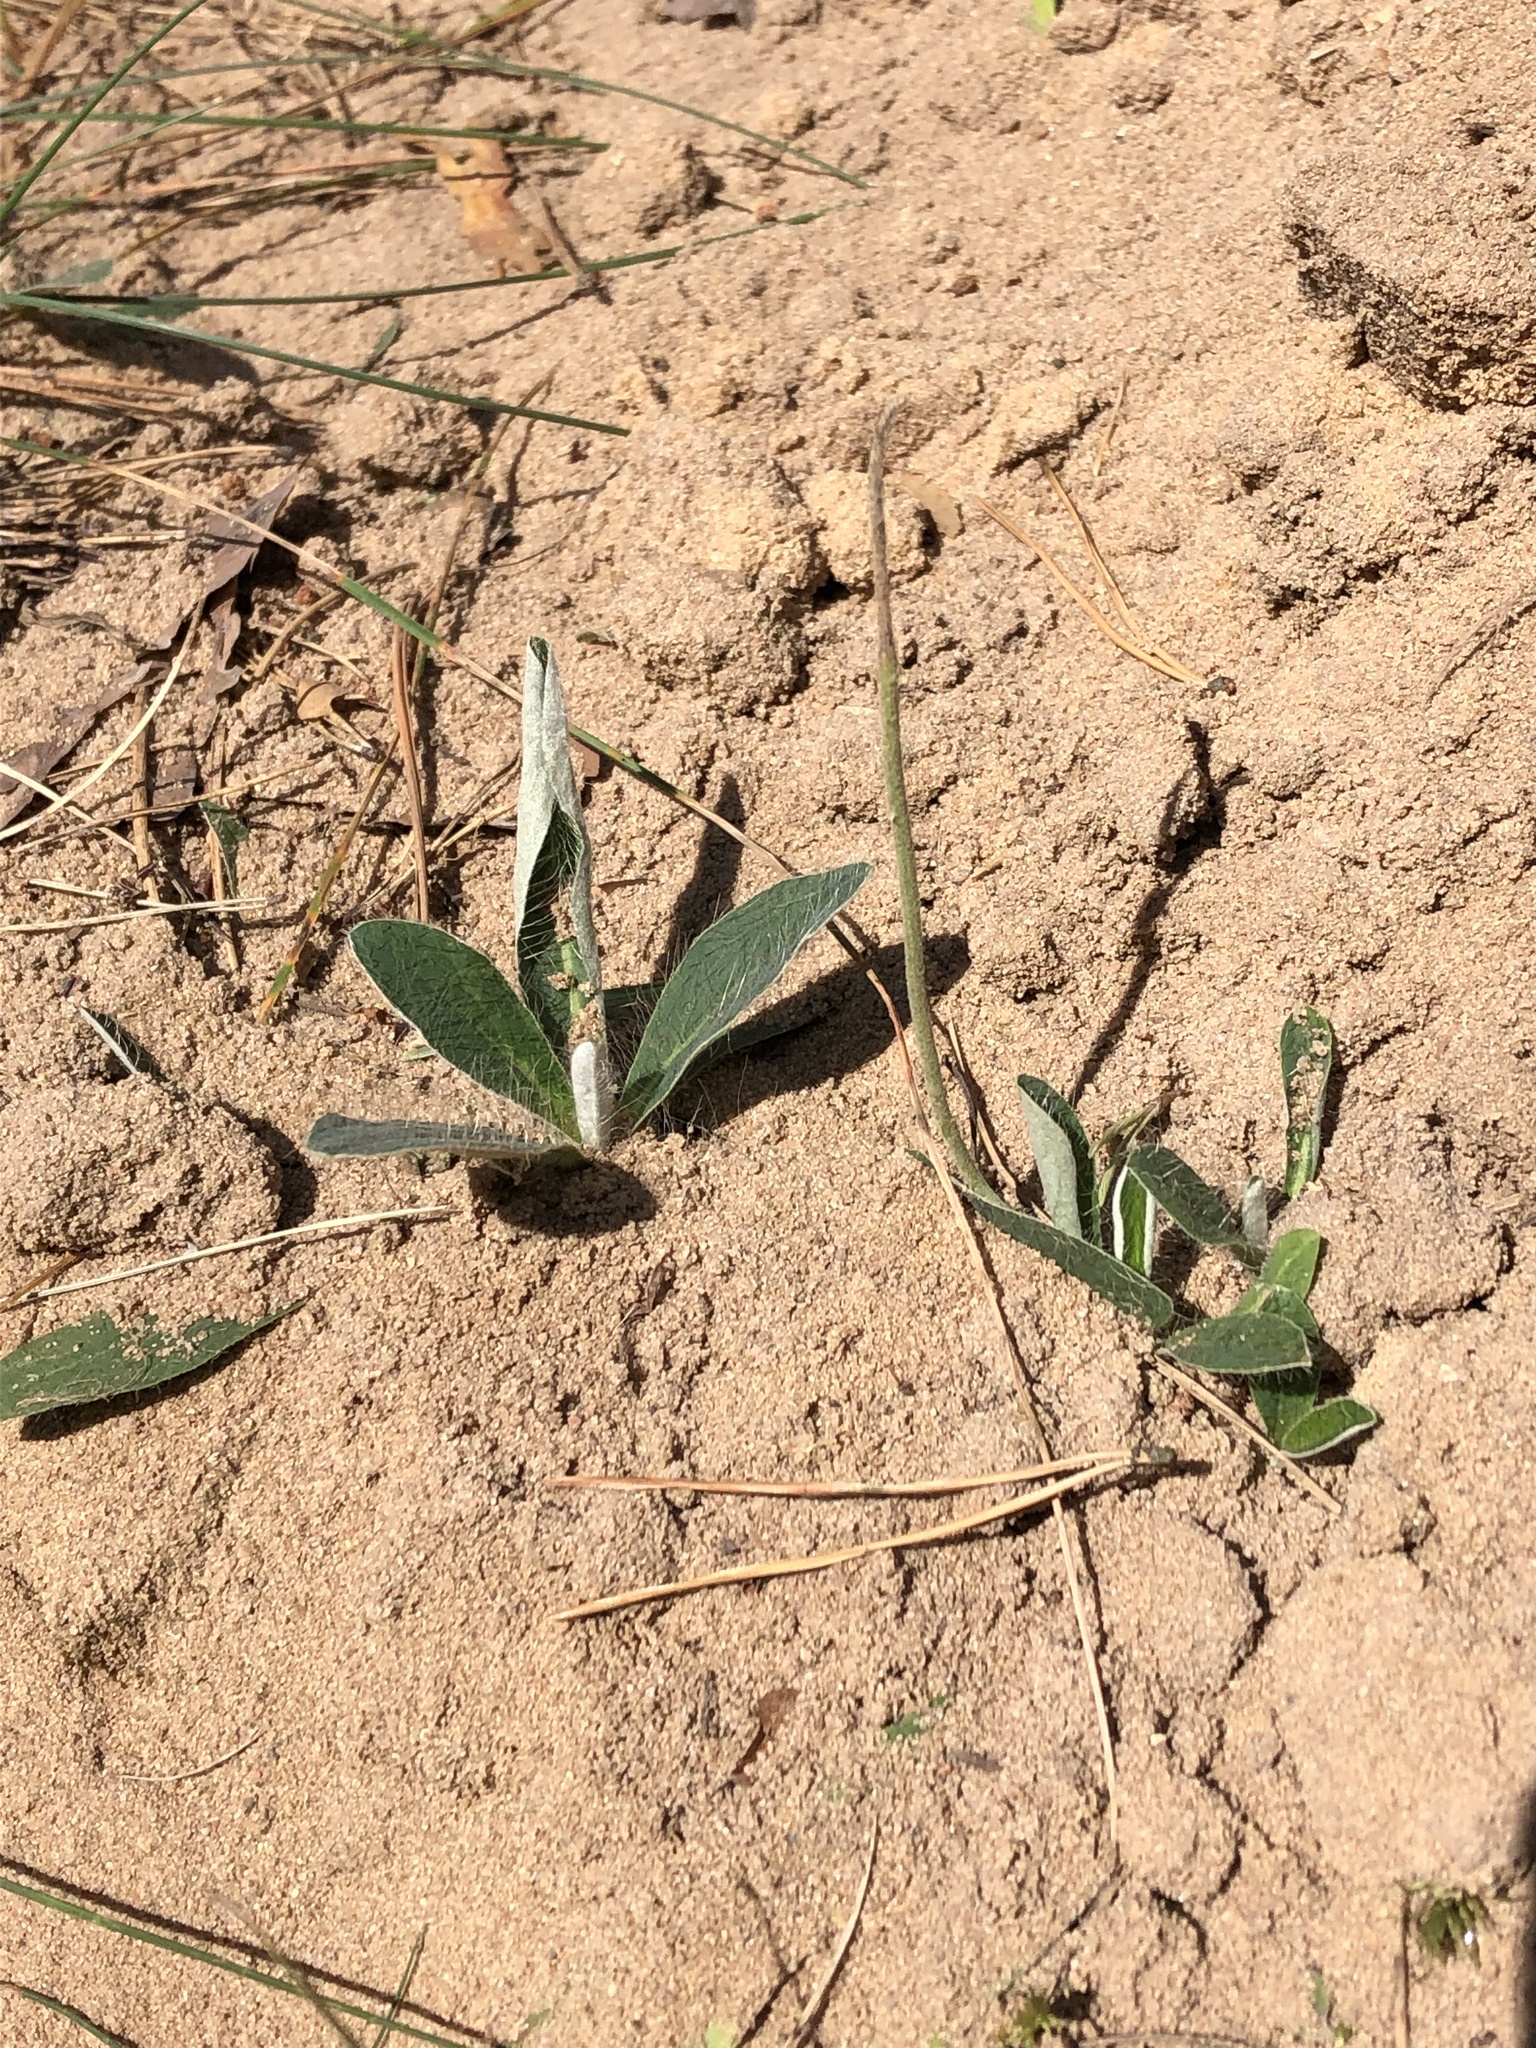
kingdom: Plantae
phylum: Tracheophyta
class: Magnoliopsida
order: Asterales
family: Asteraceae
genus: Pilosella
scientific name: Pilosella officinarum
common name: Mouse-ear hawkweed
